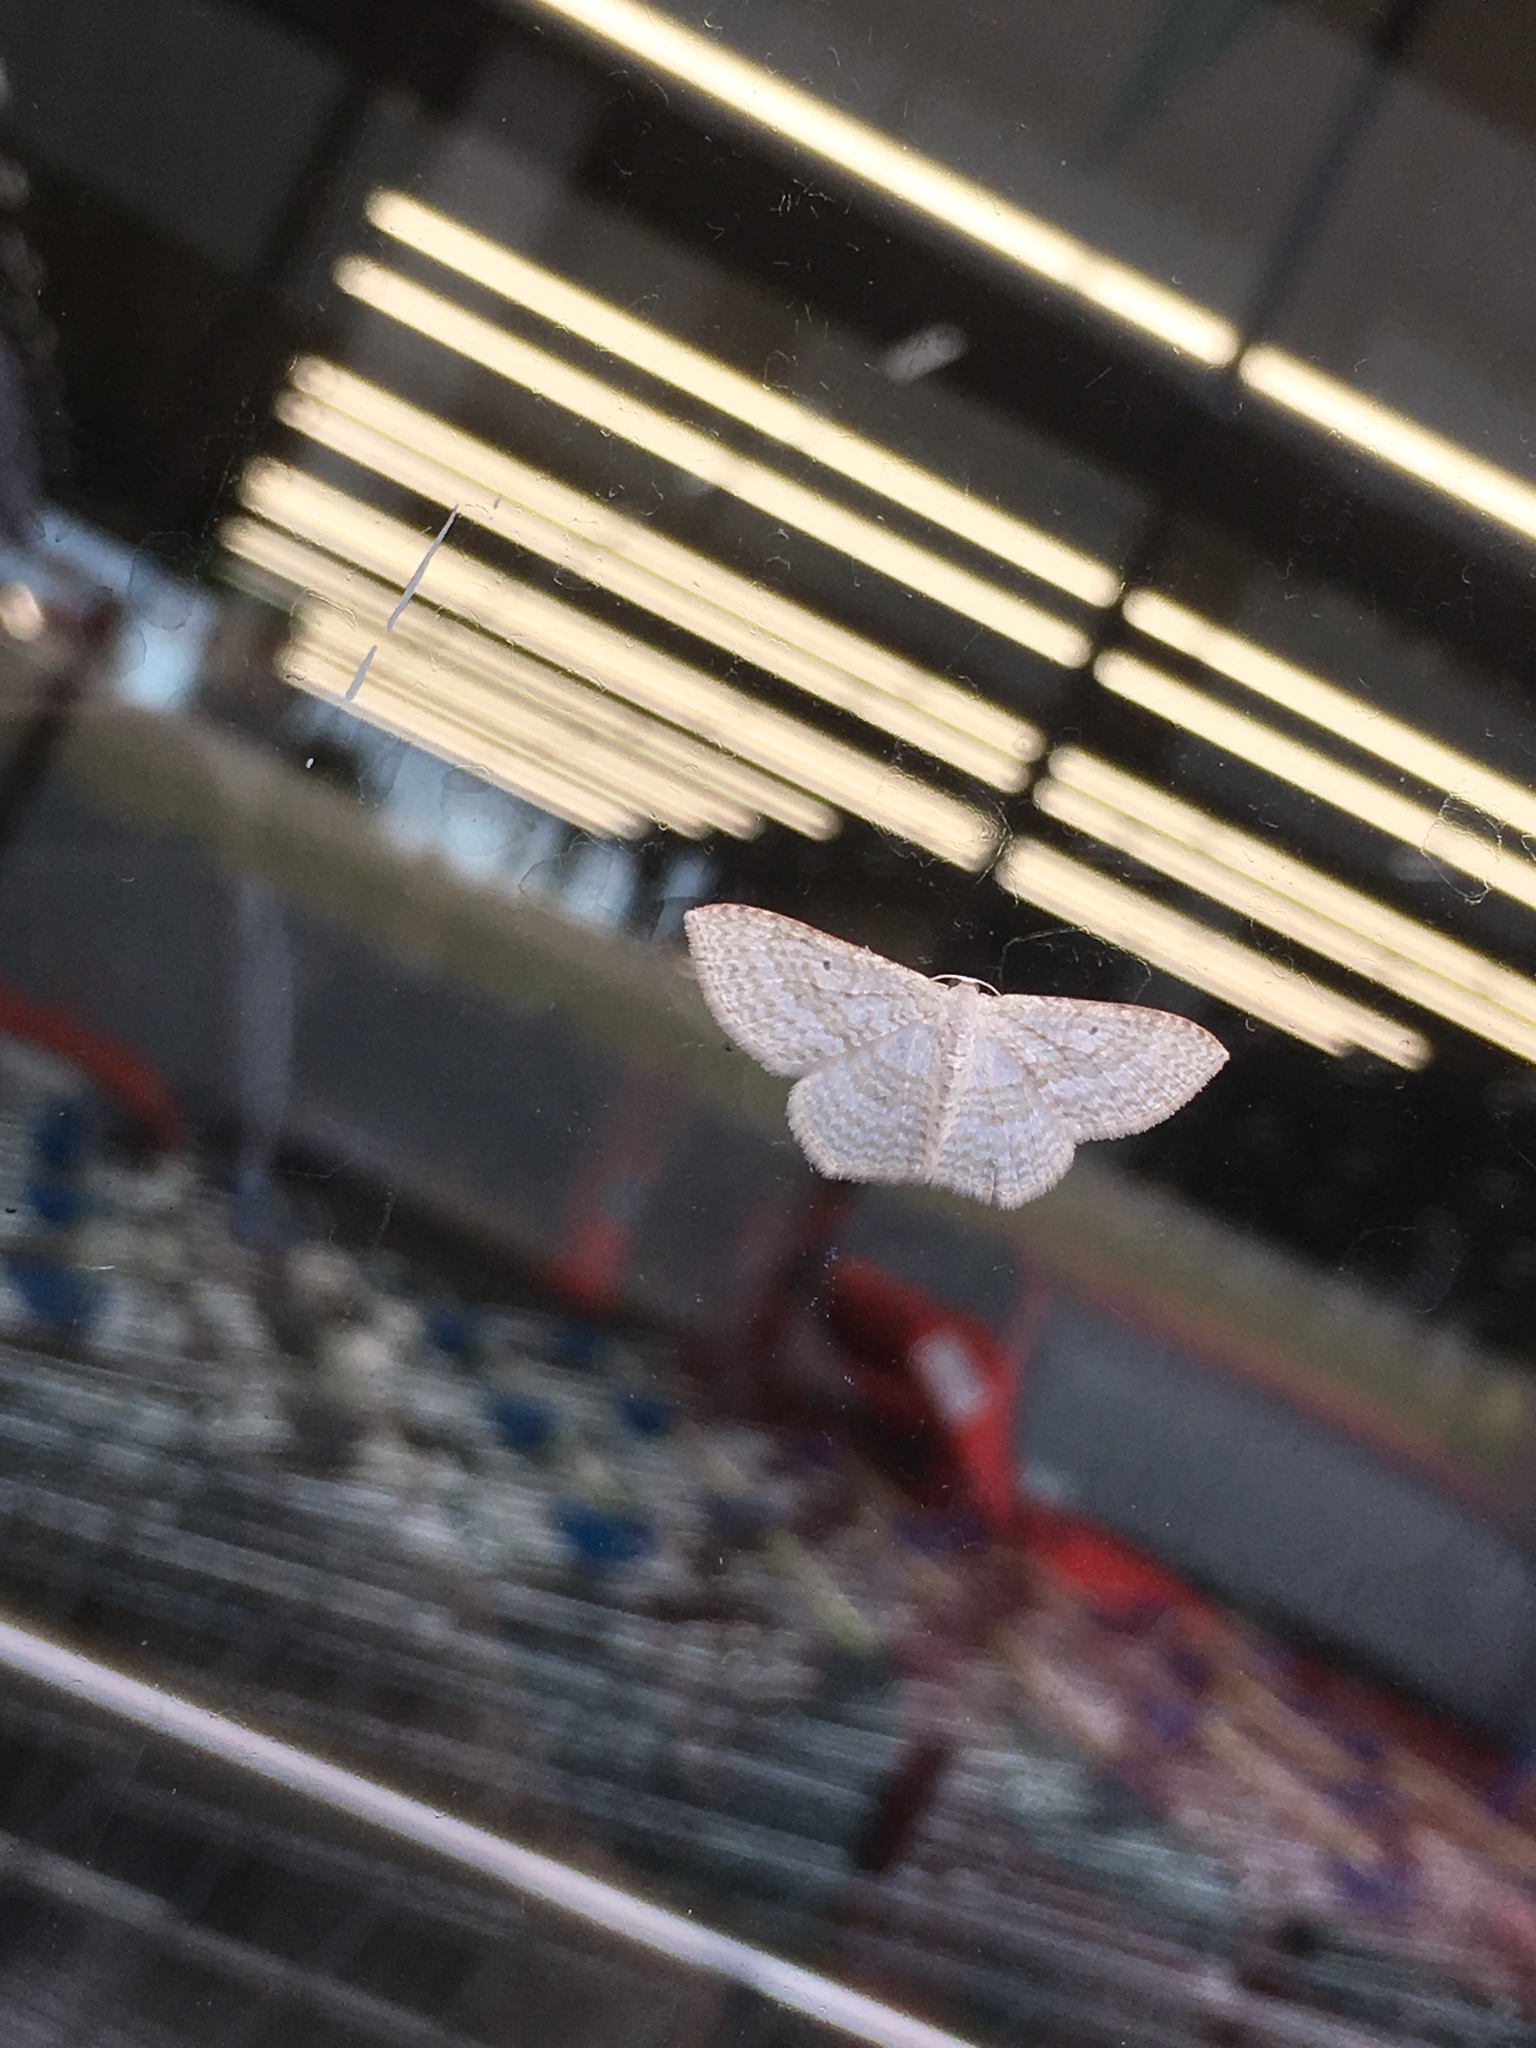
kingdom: Animalia
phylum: Arthropoda
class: Insecta
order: Lepidoptera
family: Geometridae
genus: Poecilasthena
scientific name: Poecilasthena pulchraria
